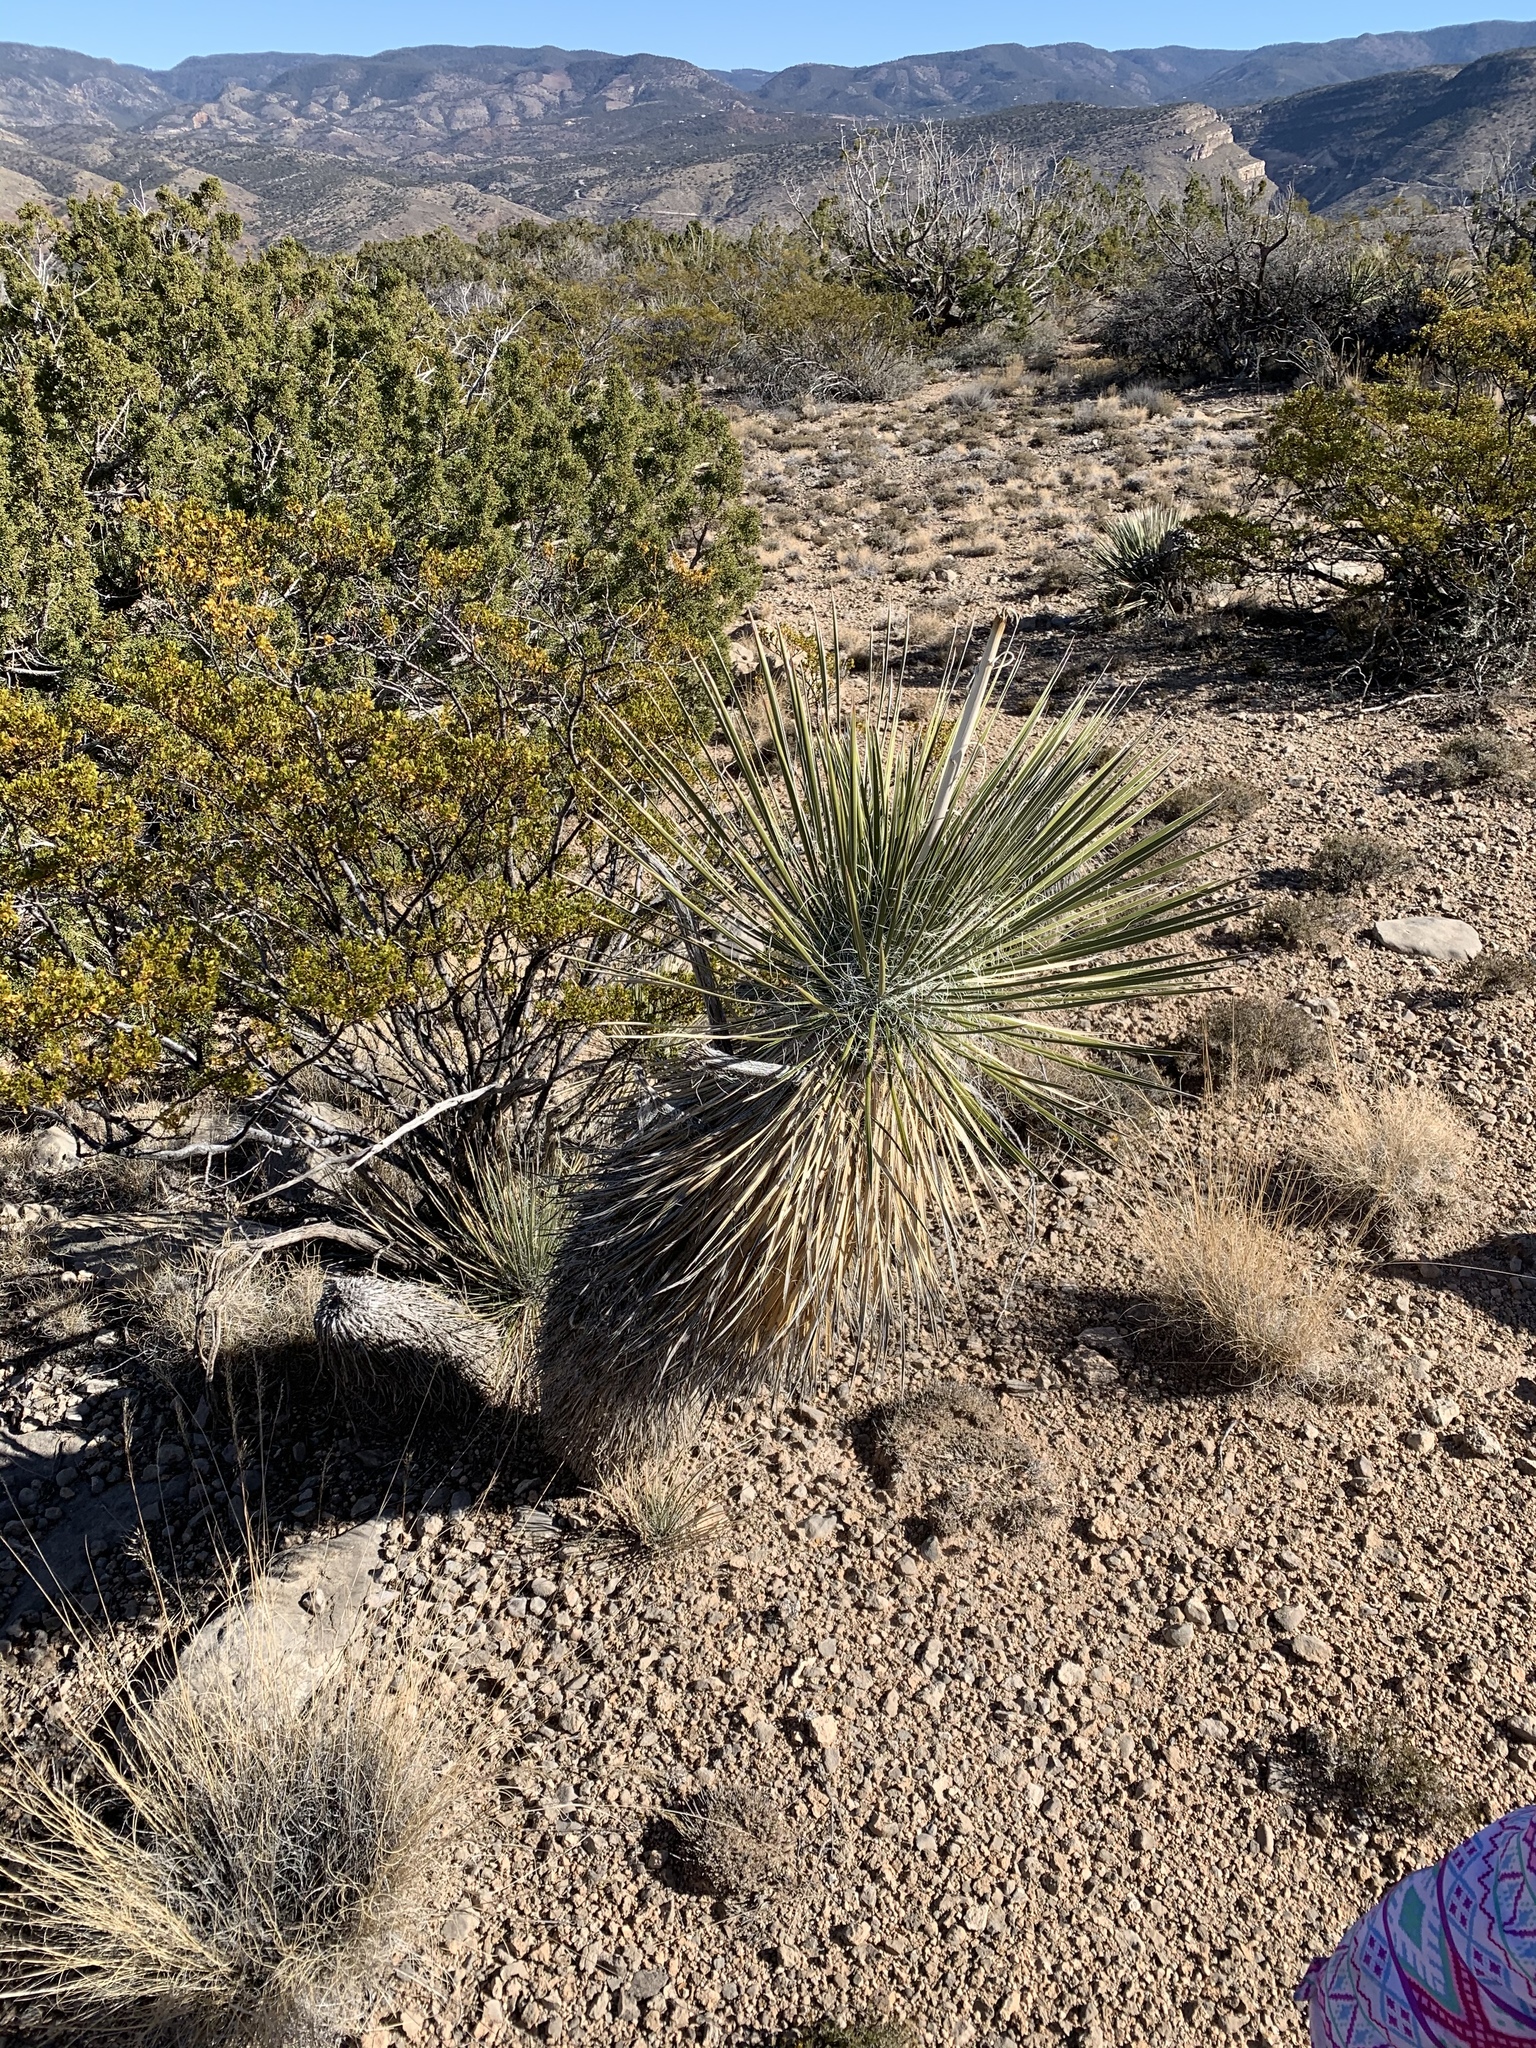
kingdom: Plantae
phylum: Tracheophyta
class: Liliopsida
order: Asparagales
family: Asparagaceae
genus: Yucca
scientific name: Yucca elata
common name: Palmella
